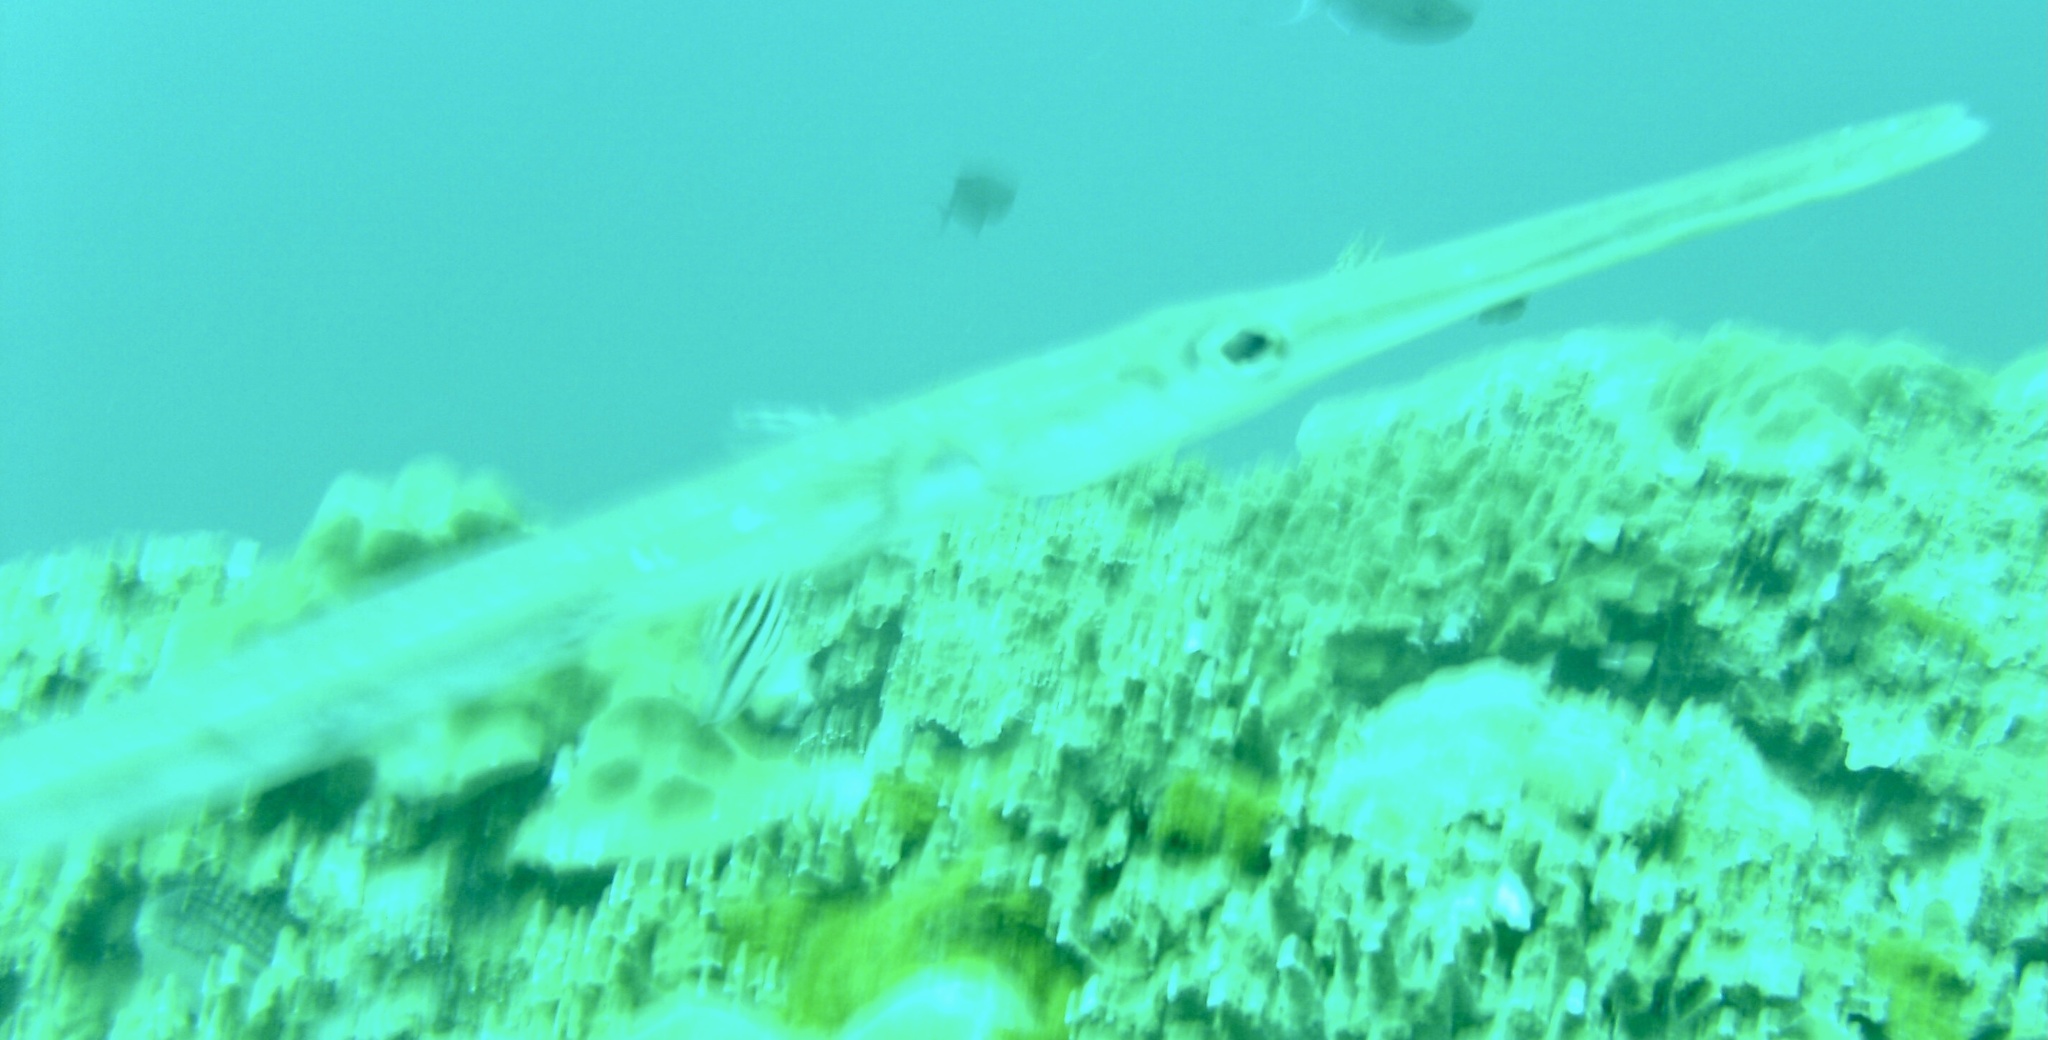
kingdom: Animalia
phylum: Chordata
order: Syngnathiformes
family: Aulostomidae
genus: Aulostomus
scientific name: Aulostomus chinensis
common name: Chinese trumpetfish
